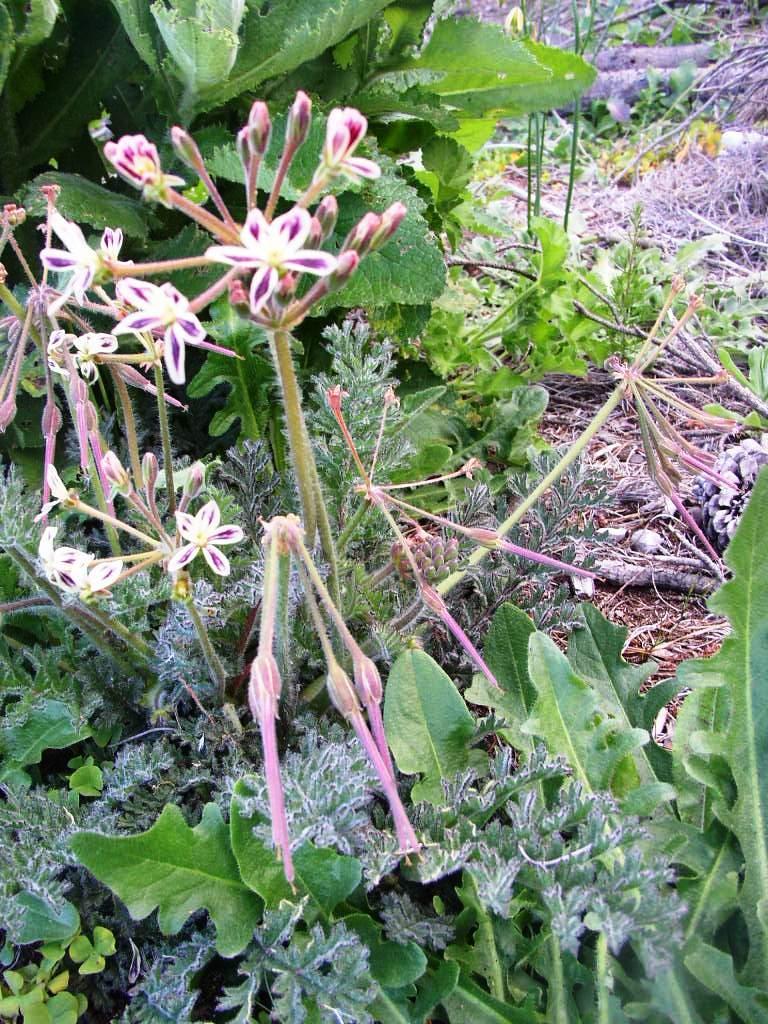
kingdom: Plantae
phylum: Tracheophyta
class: Magnoliopsida
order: Geraniales
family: Geraniaceae
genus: Pelargonium
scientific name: Pelargonium triste
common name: Night-scent pelargonium
